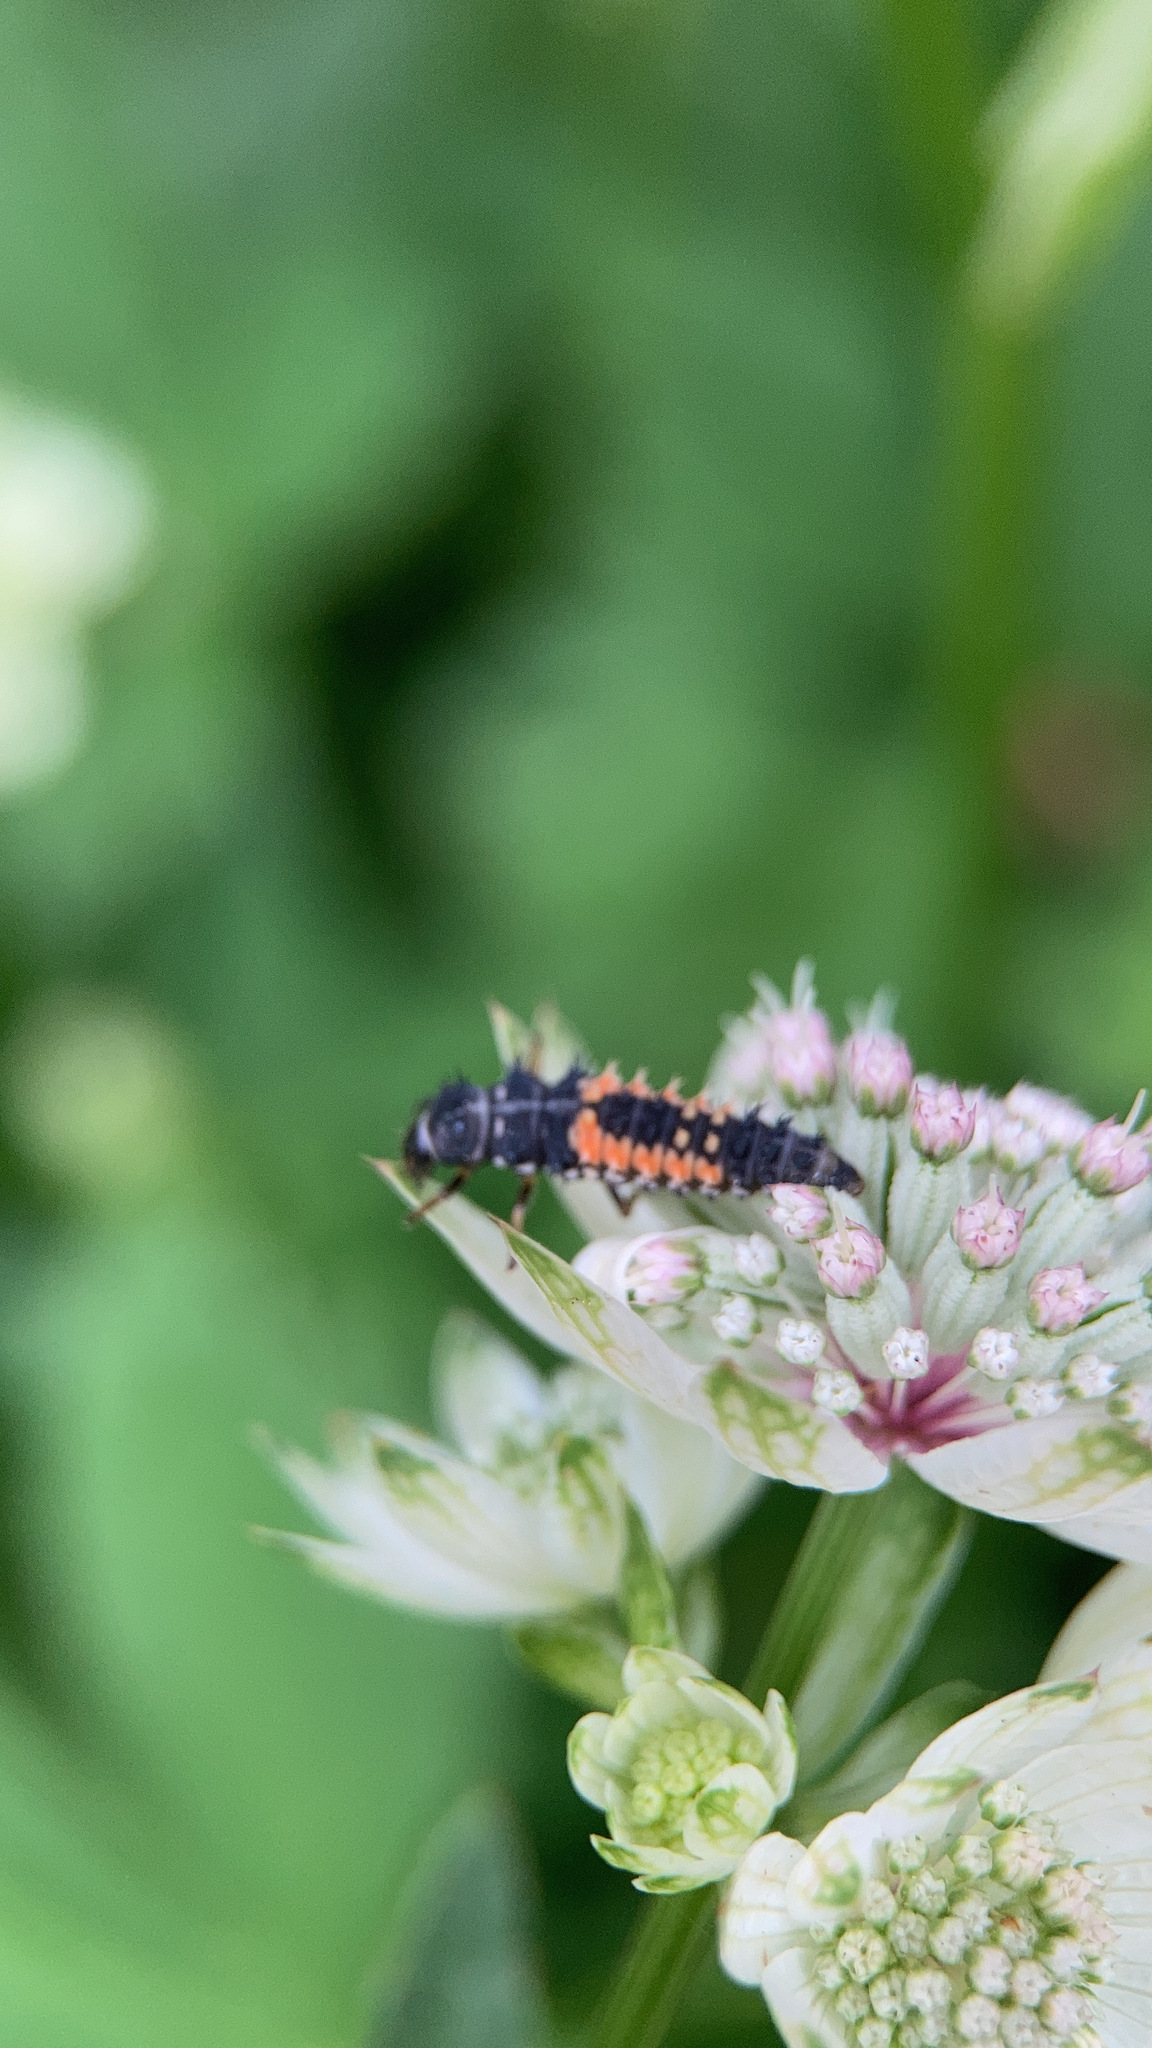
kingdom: Animalia
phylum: Arthropoda
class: Insecta
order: Coleoptera
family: Coccinellidae
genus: Harmonia
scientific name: Harmonia axyridis
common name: Harlequin ladybird
